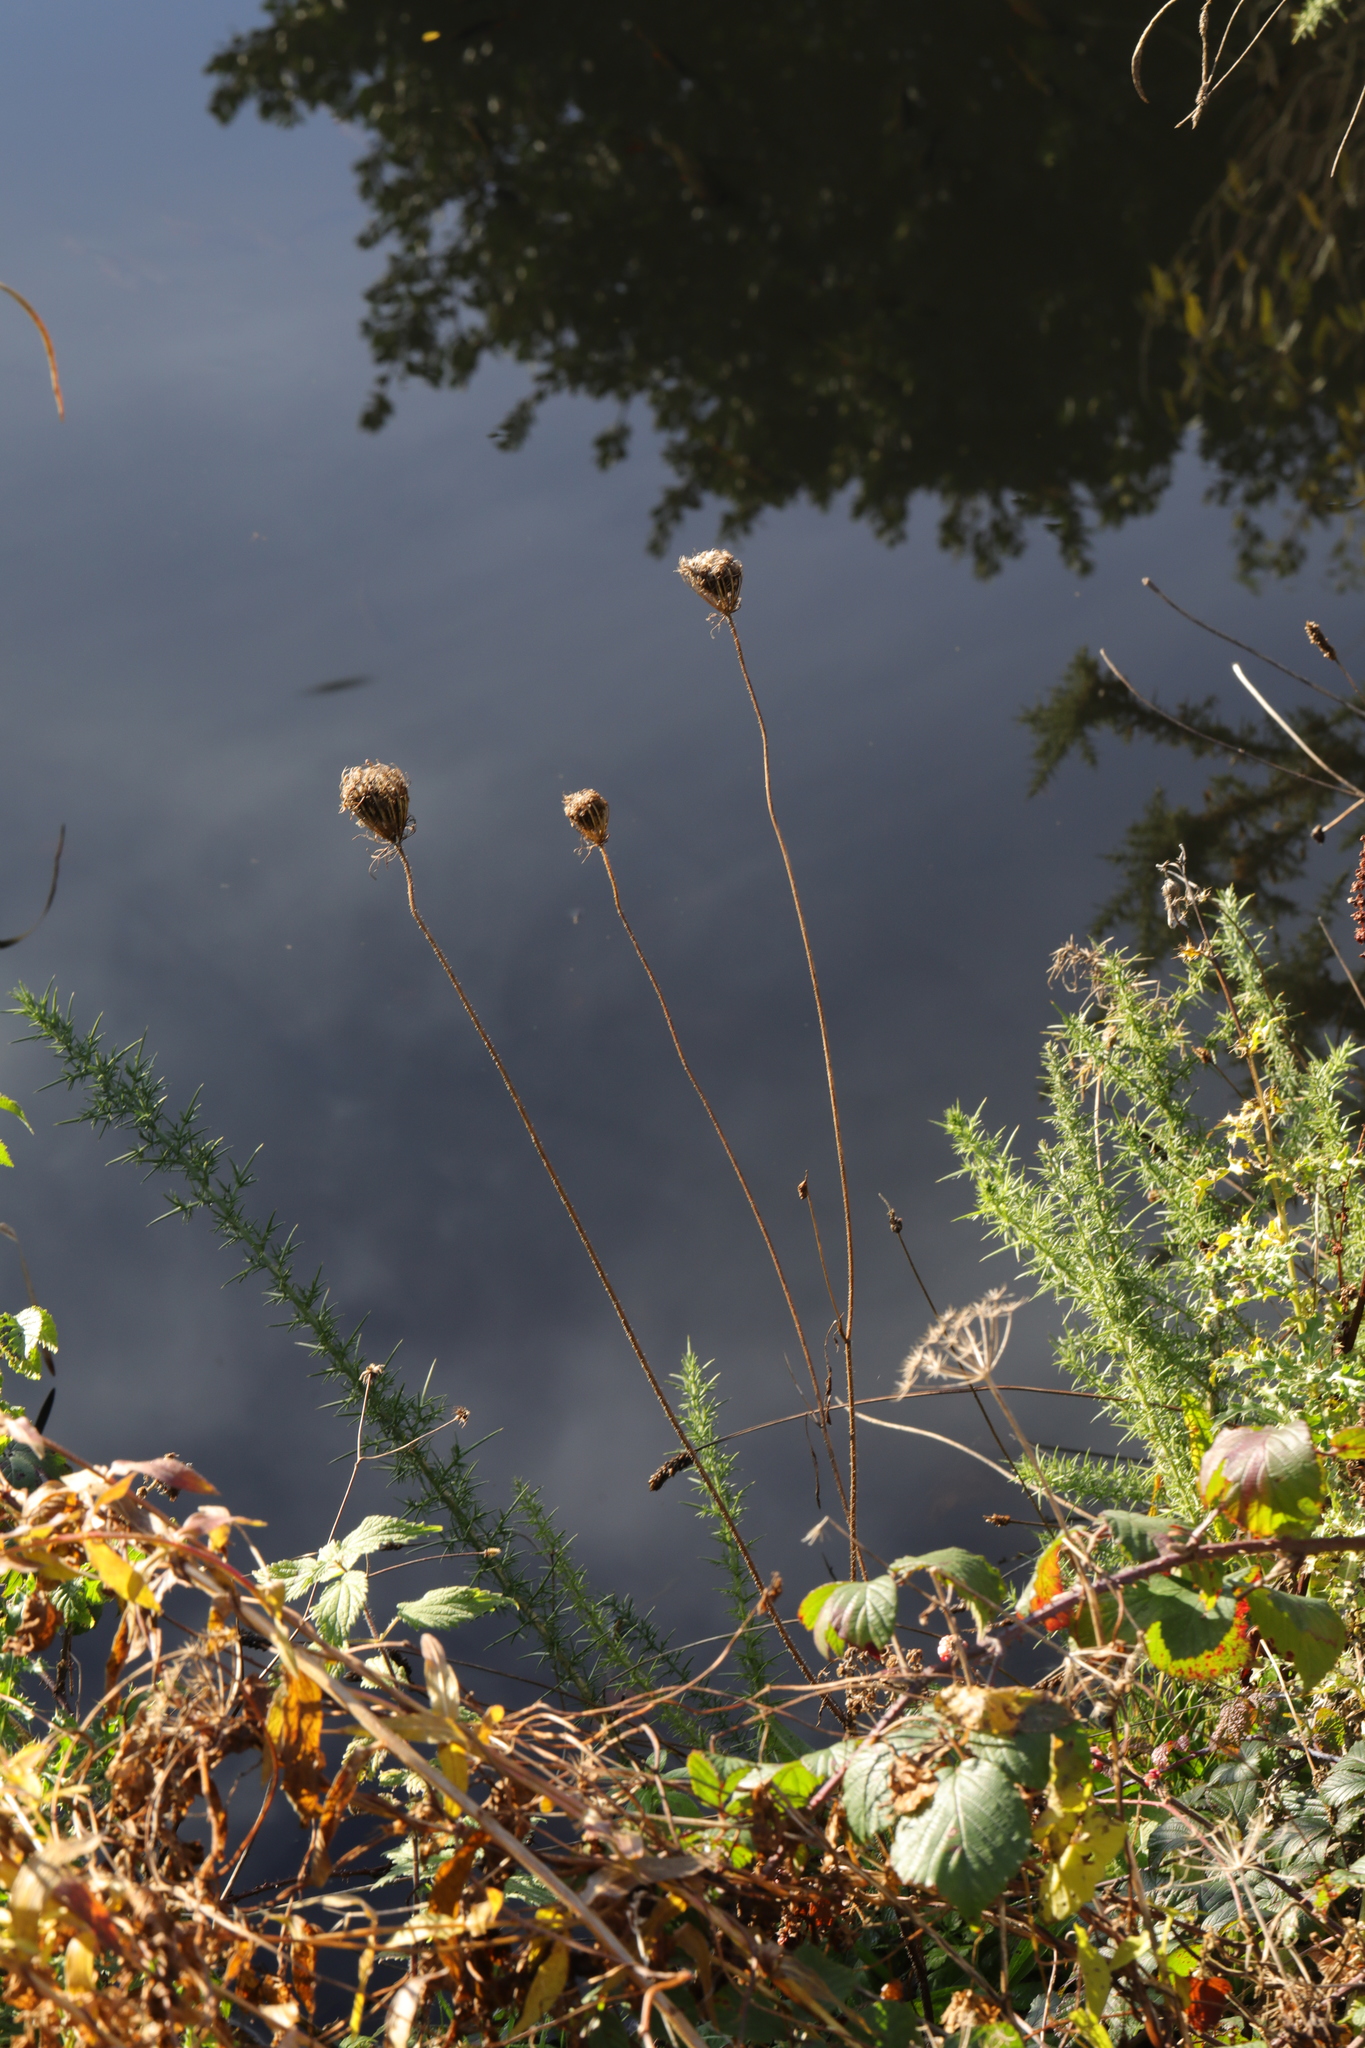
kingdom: Plantae
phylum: Tracheophyta
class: Magnoliopsida
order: Apiales
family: Apiaceae
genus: Daucus
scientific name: Daucus carota
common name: Wild carrot
